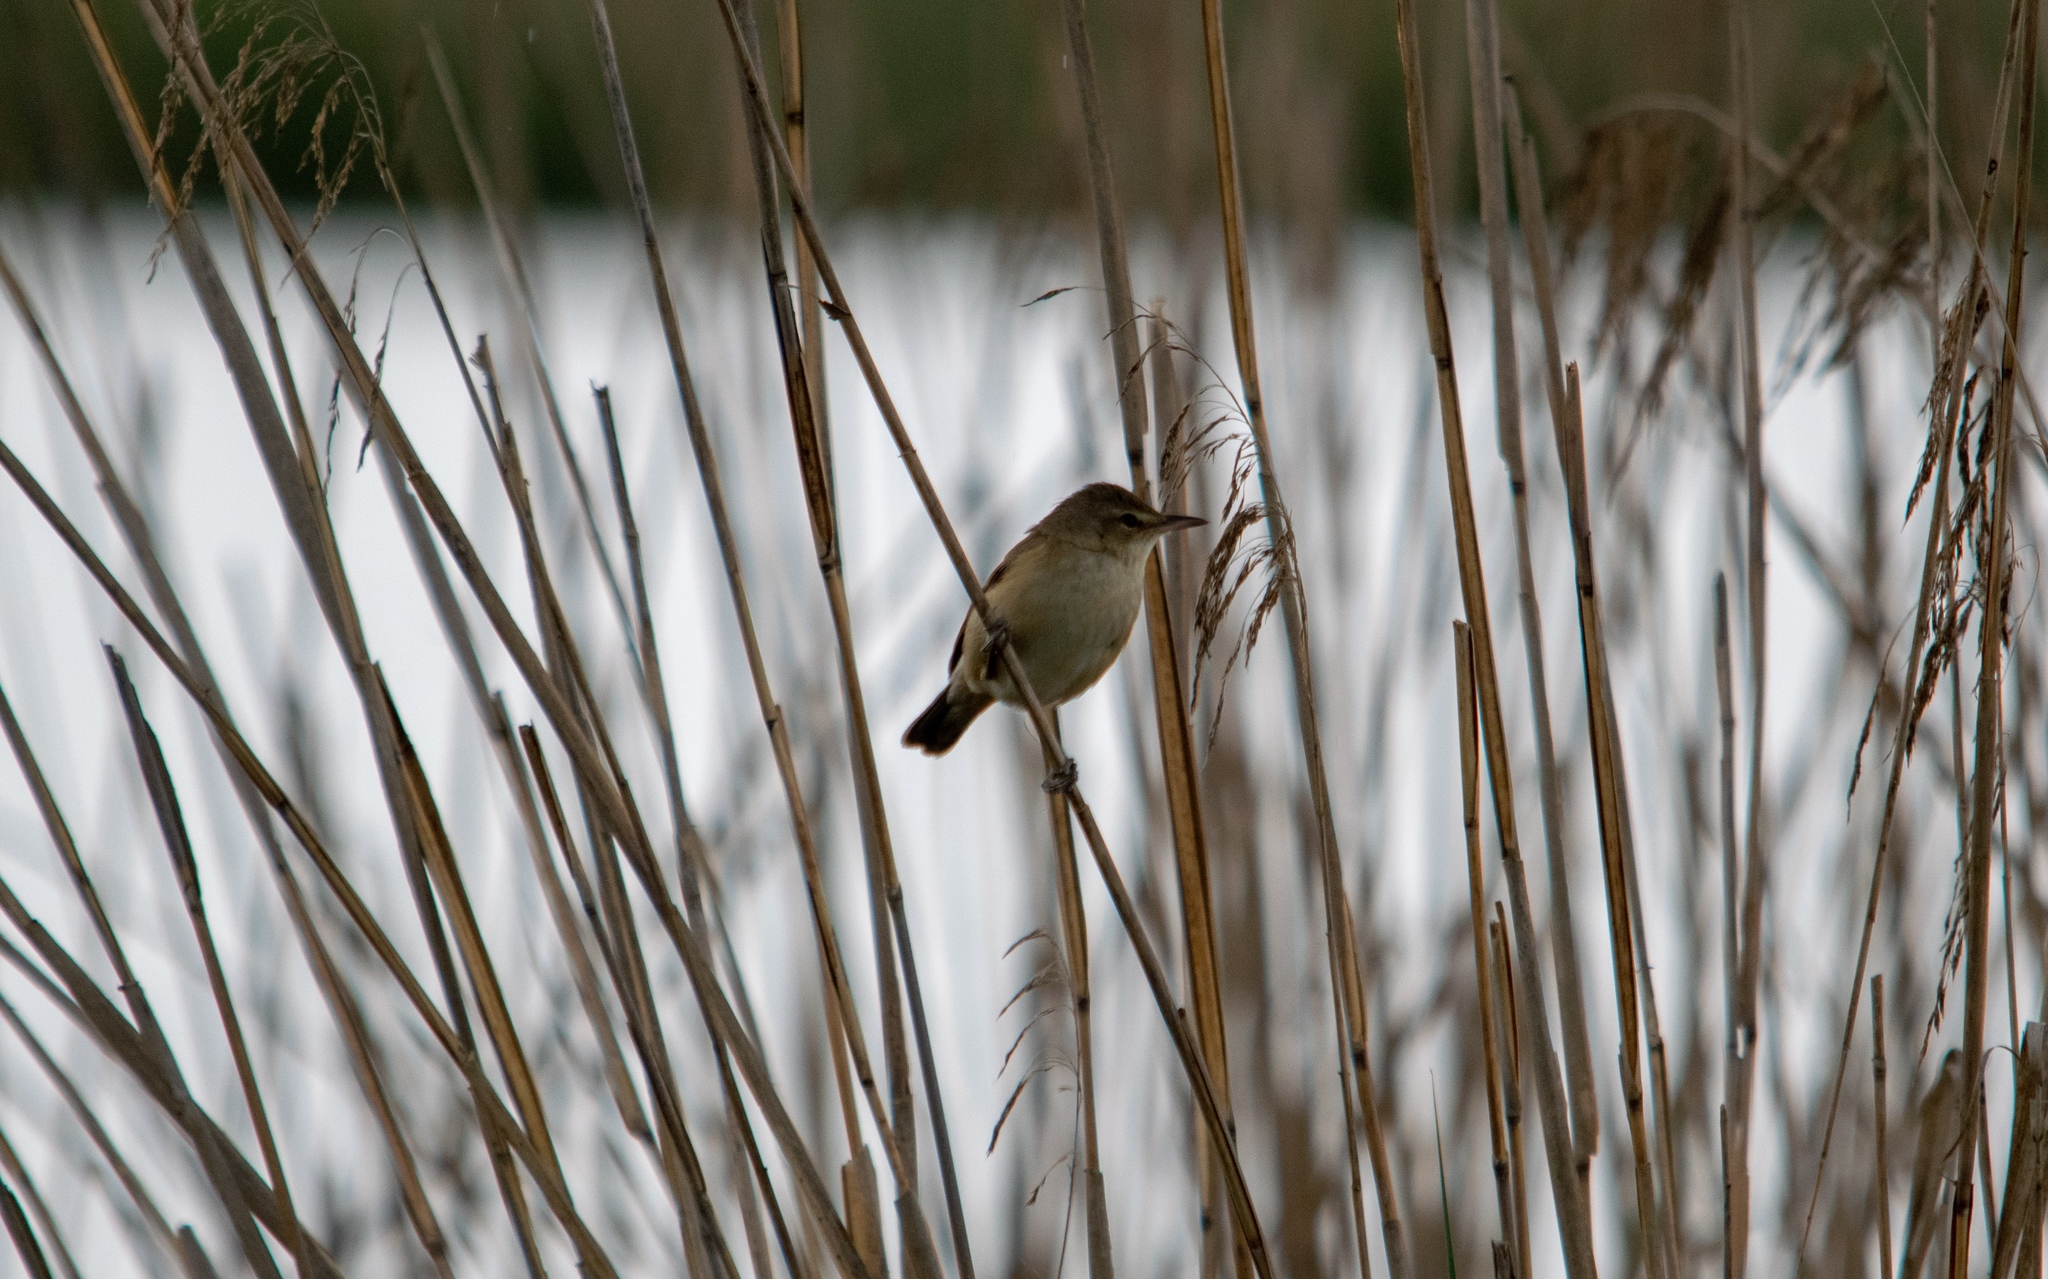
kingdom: Animalia
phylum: Chordata
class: Aves
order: Passeriformes
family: Acrocephalidae
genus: Acrocephalus
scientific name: Acrocephalus scirpaceus
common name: Eurasian reed warbler
